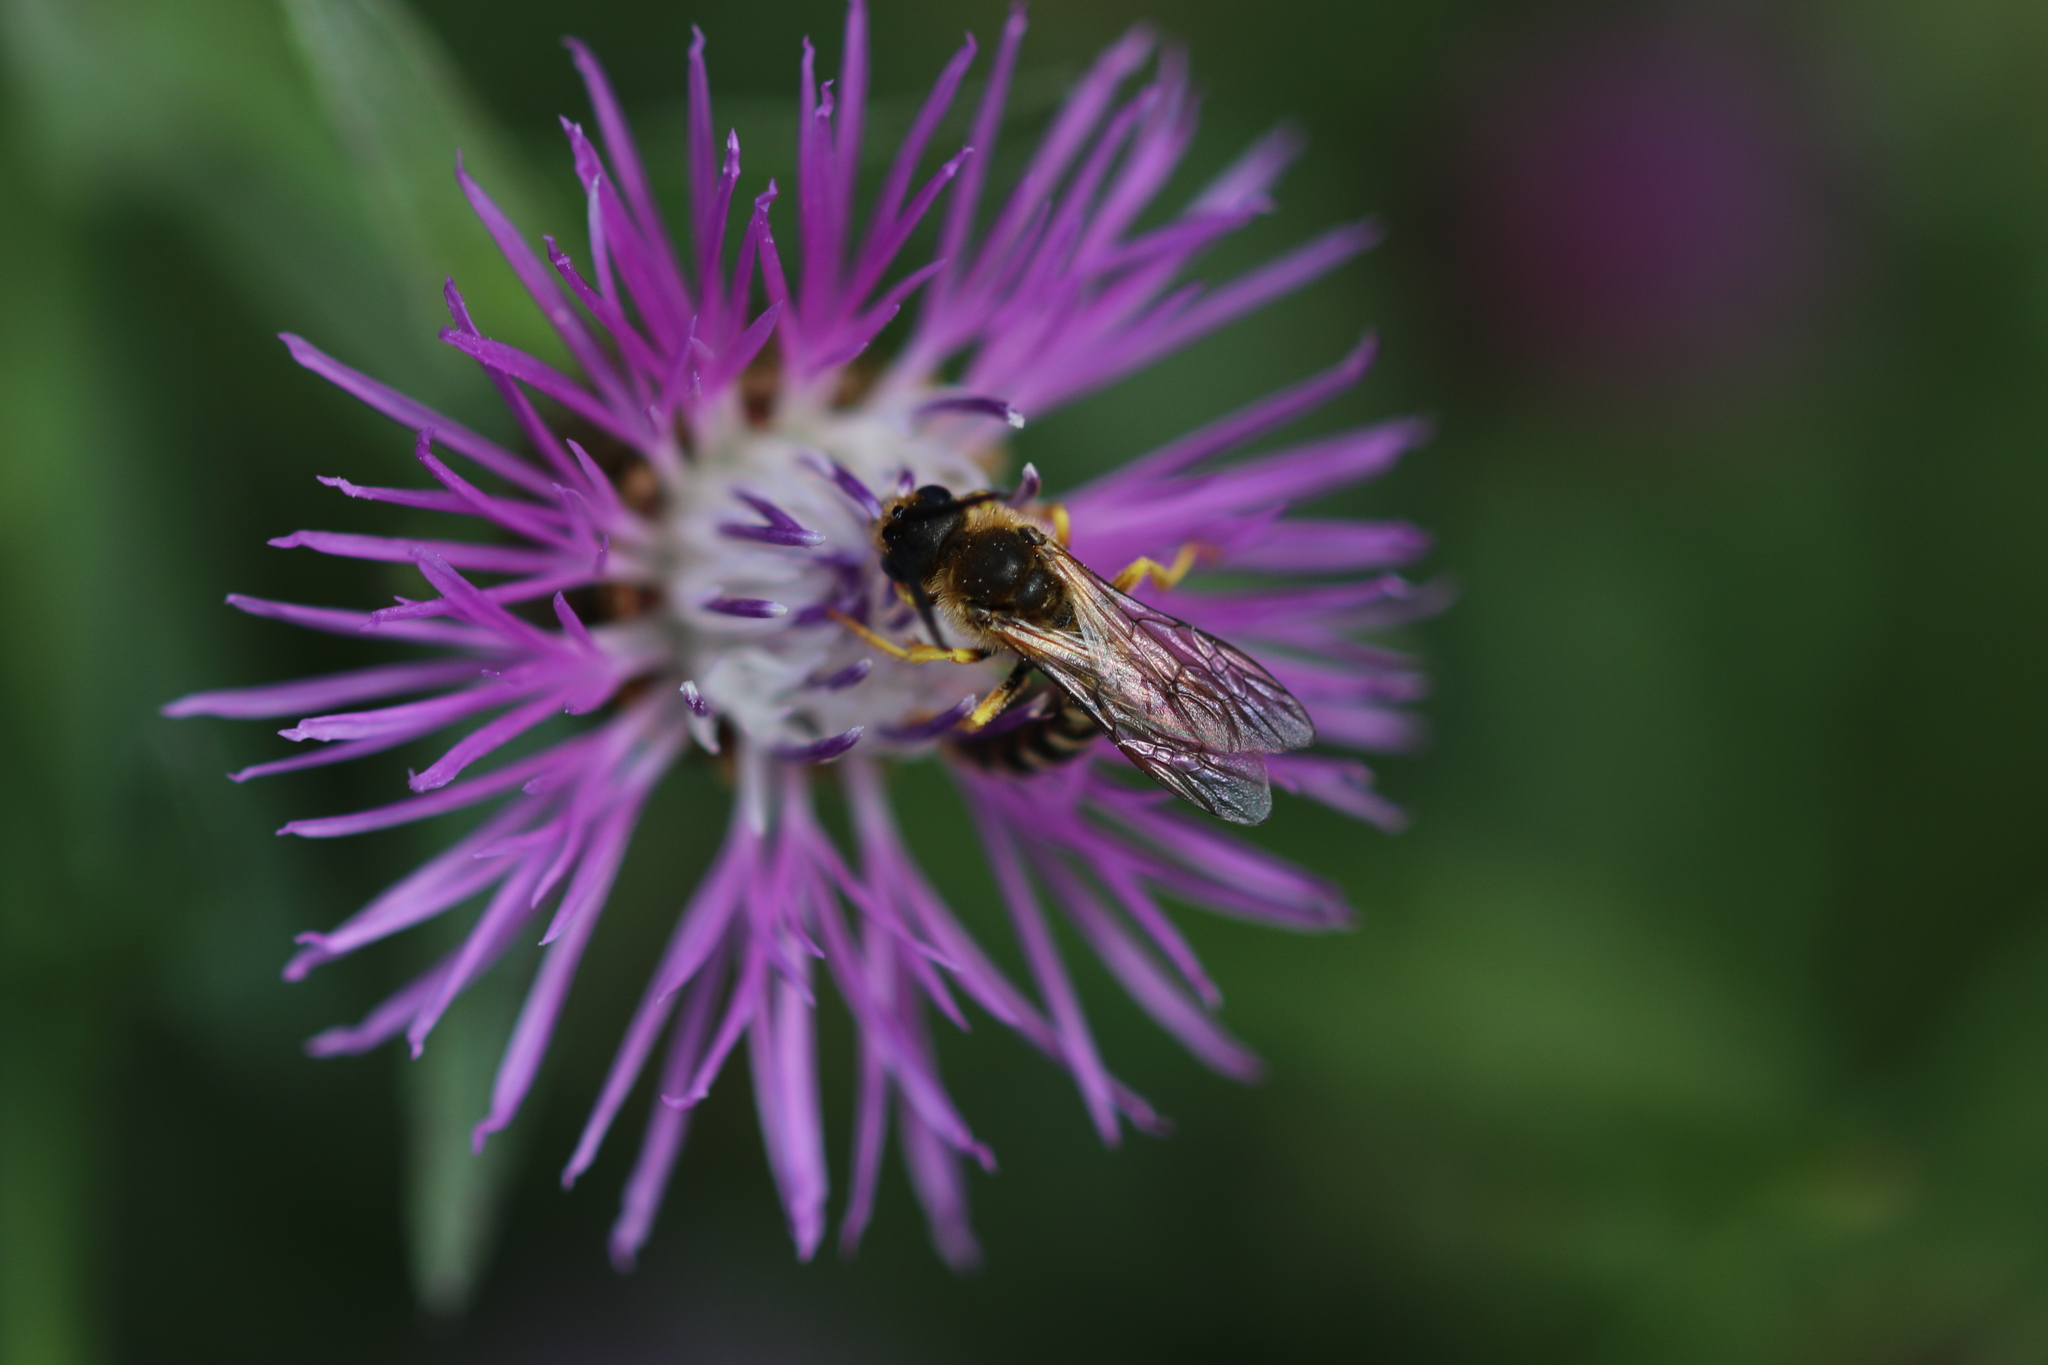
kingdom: Animalia
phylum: Arthropoda
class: Insecta
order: Hymenoptera
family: Halictidae
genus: Halictus
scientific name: Halictus scabiosae
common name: Great banded furrow bee
